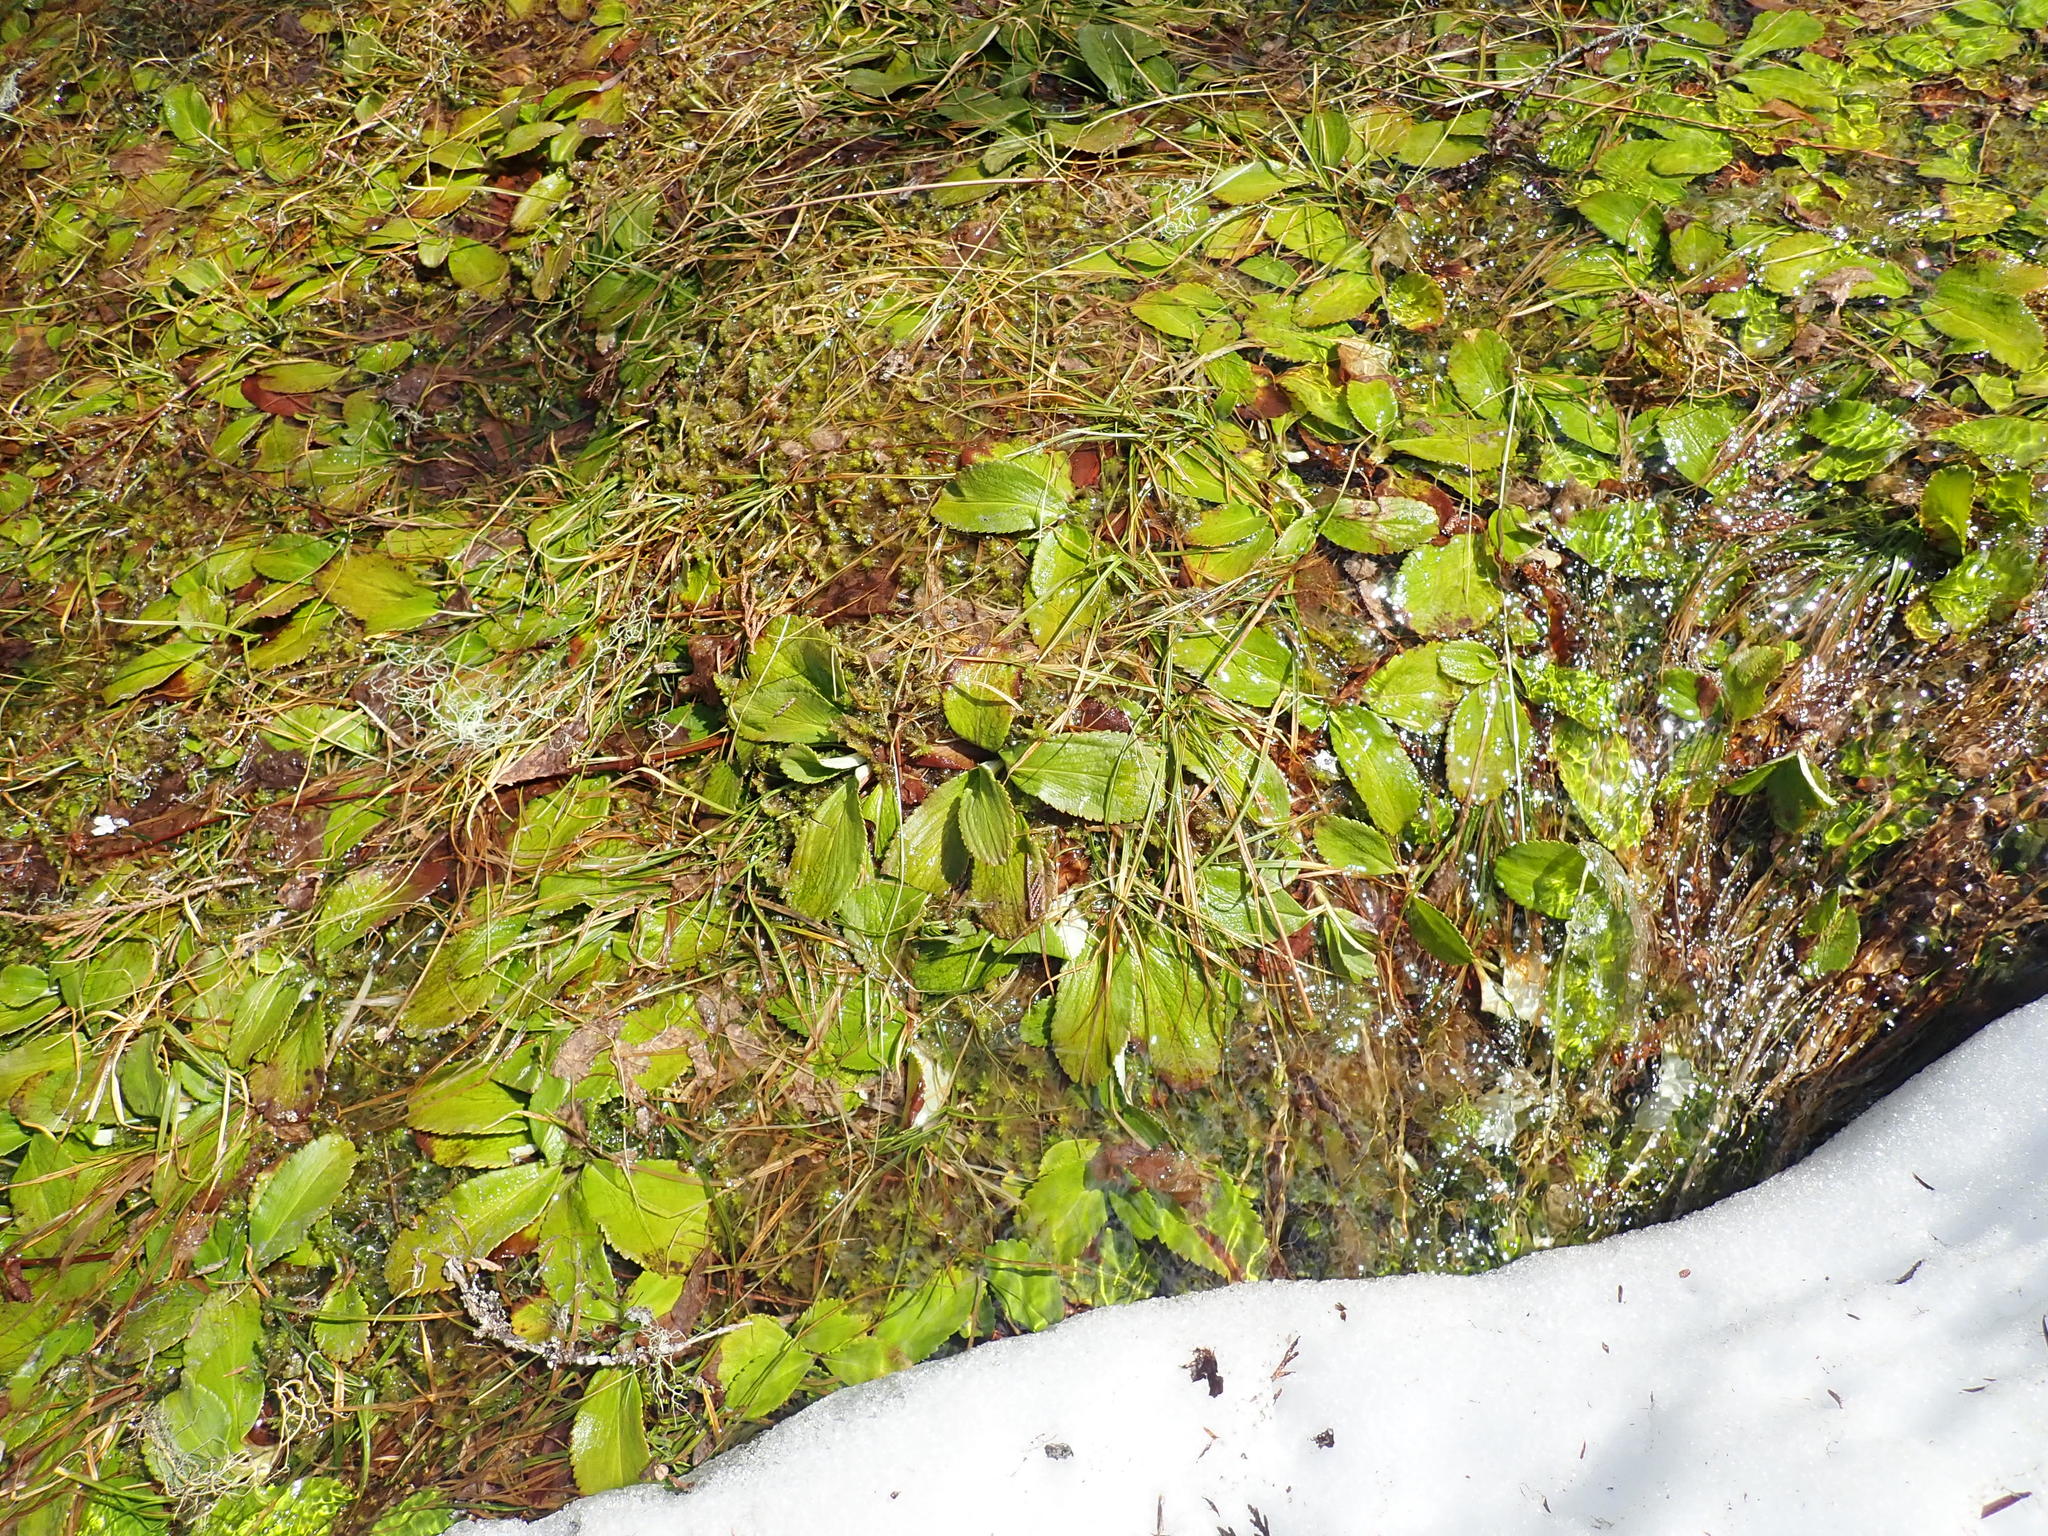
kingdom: Plantae
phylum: Tracheophyta
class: Magnoliopsida
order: Saxifragales
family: Saxifragaceae
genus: Leptarrhena
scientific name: Leptarrhena pyrolifolia
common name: Leatherleaf-saxifrage
